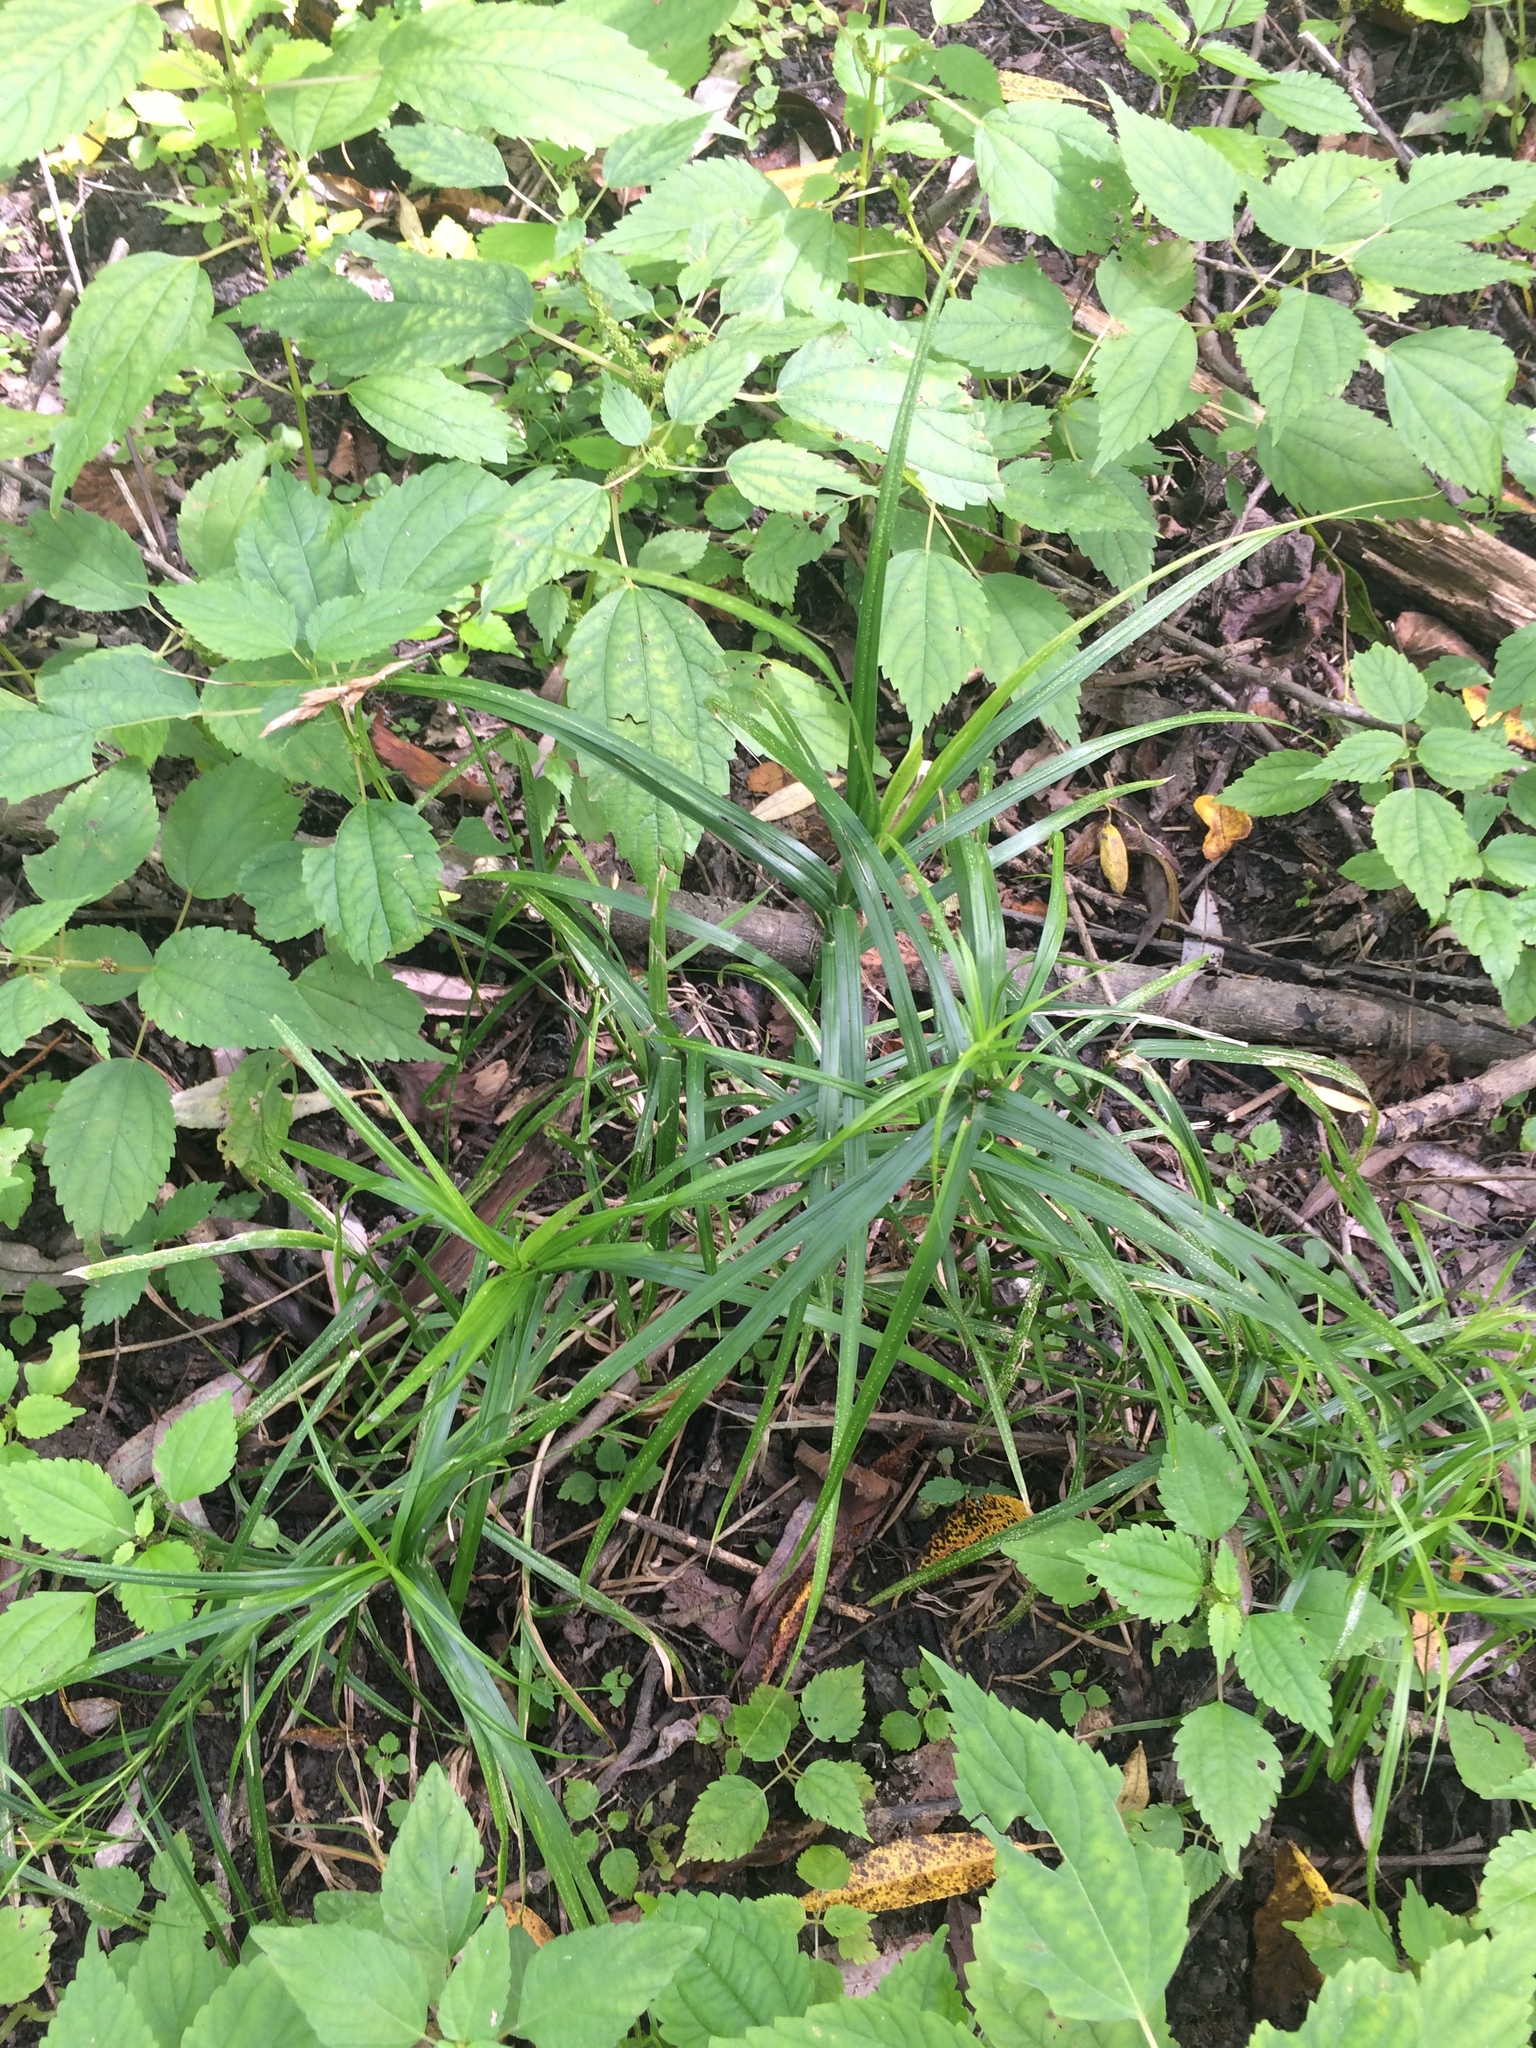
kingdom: Plantae
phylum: Tracheophyta
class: Liliopsida
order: Poales
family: Cyperaceae
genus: Carex
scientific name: Carex muskingumensis
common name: Muskingum sedge
